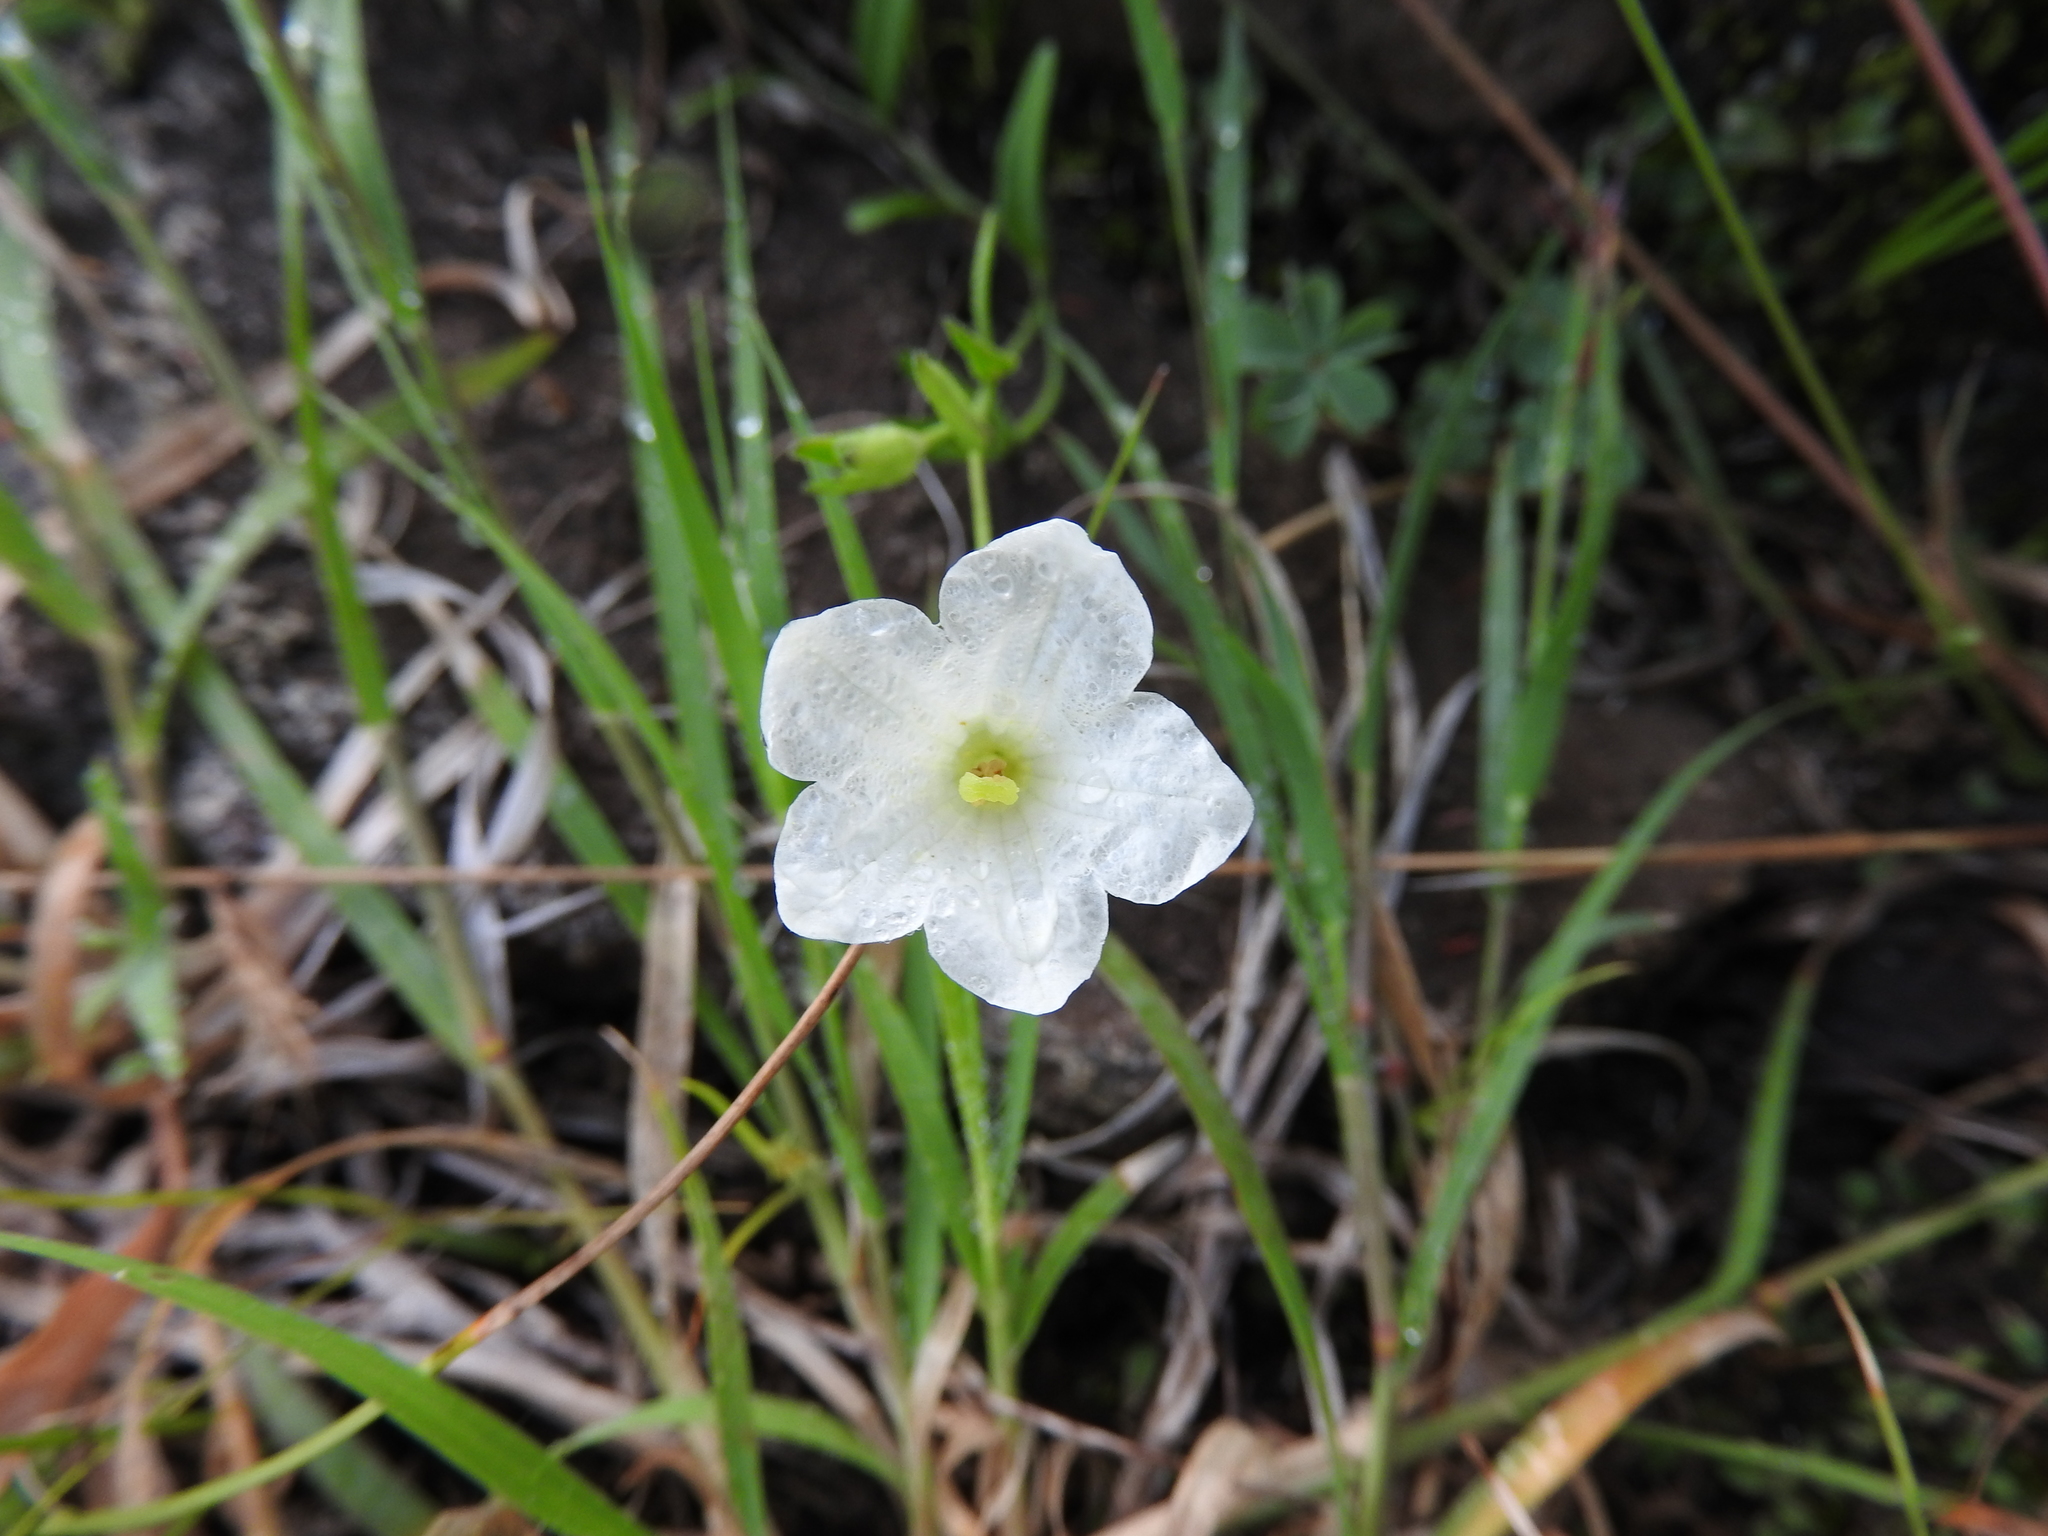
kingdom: Plantae
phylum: Tracheophyta
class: Magnoliopsida
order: Solanales
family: Solanaceae
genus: Salpiglossis
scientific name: Salpiglossis erecta
